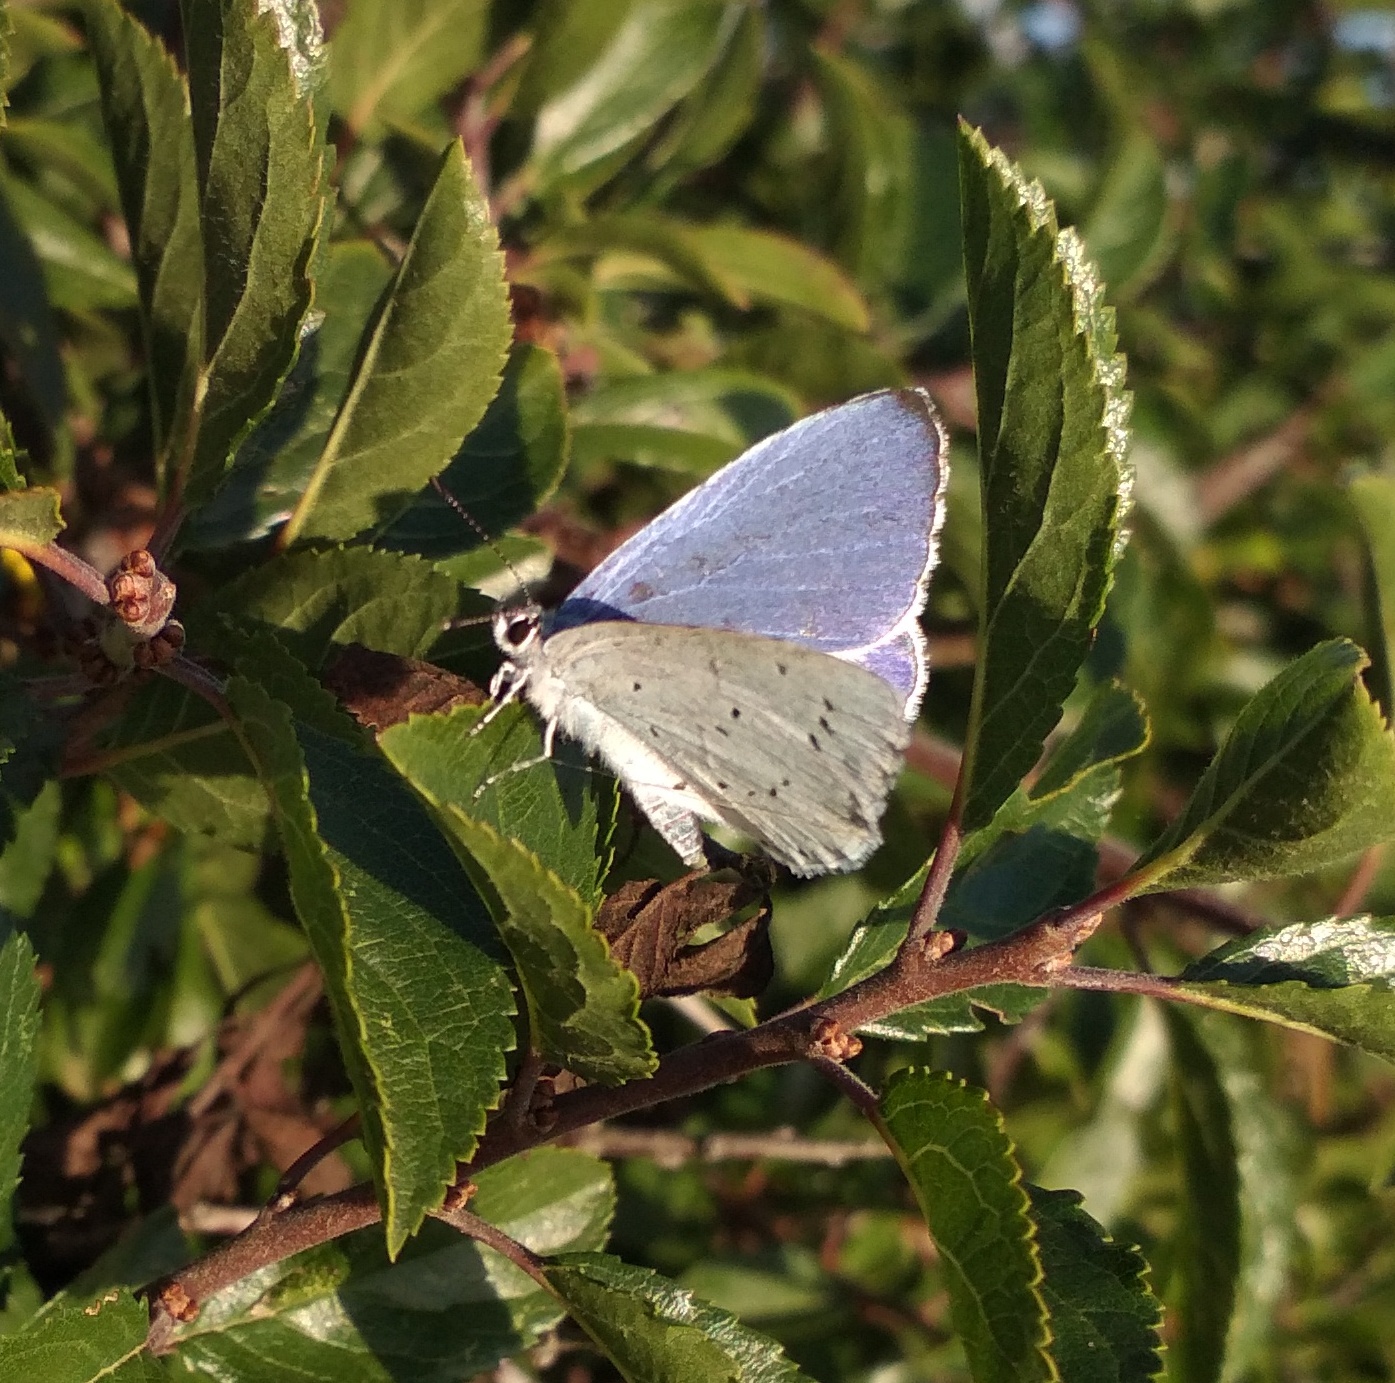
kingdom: Animalia
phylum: Arthropoda
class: Insecta
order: Lepidoptera
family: Lycaenidae
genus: Celastrina
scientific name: Celastrina argiolus
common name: Holly blue
